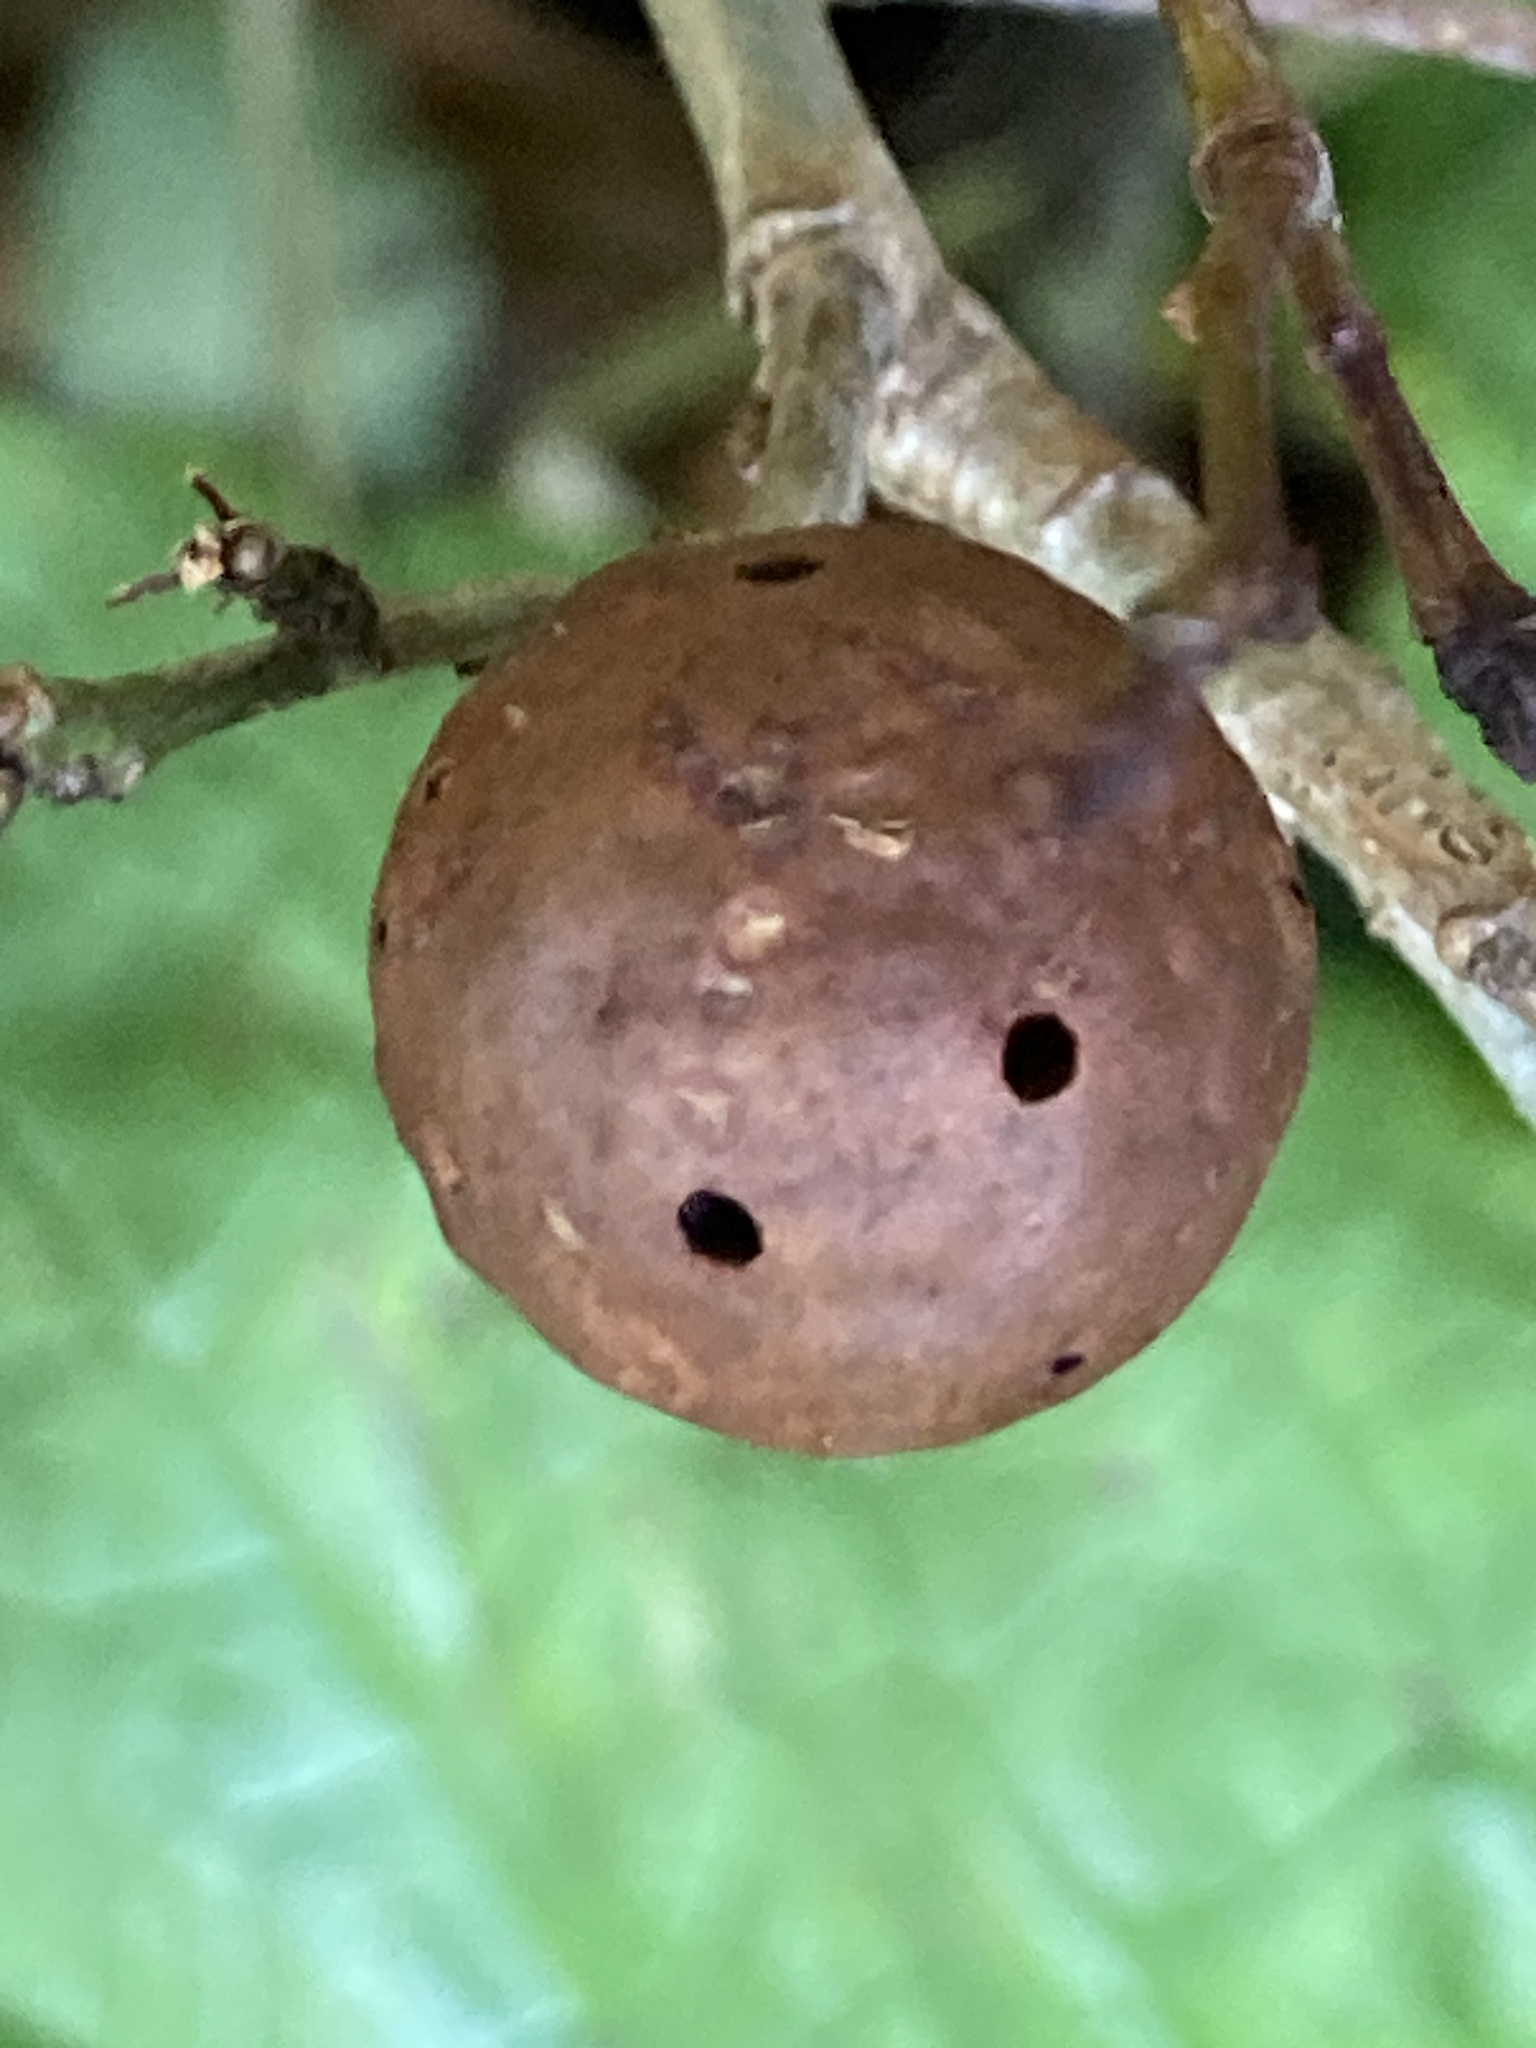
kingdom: Animalia
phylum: Arthropoda
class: Insecta
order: Hymenoptera
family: Cynipidae
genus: Andricus
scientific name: Andricus kollari
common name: Marble gall
